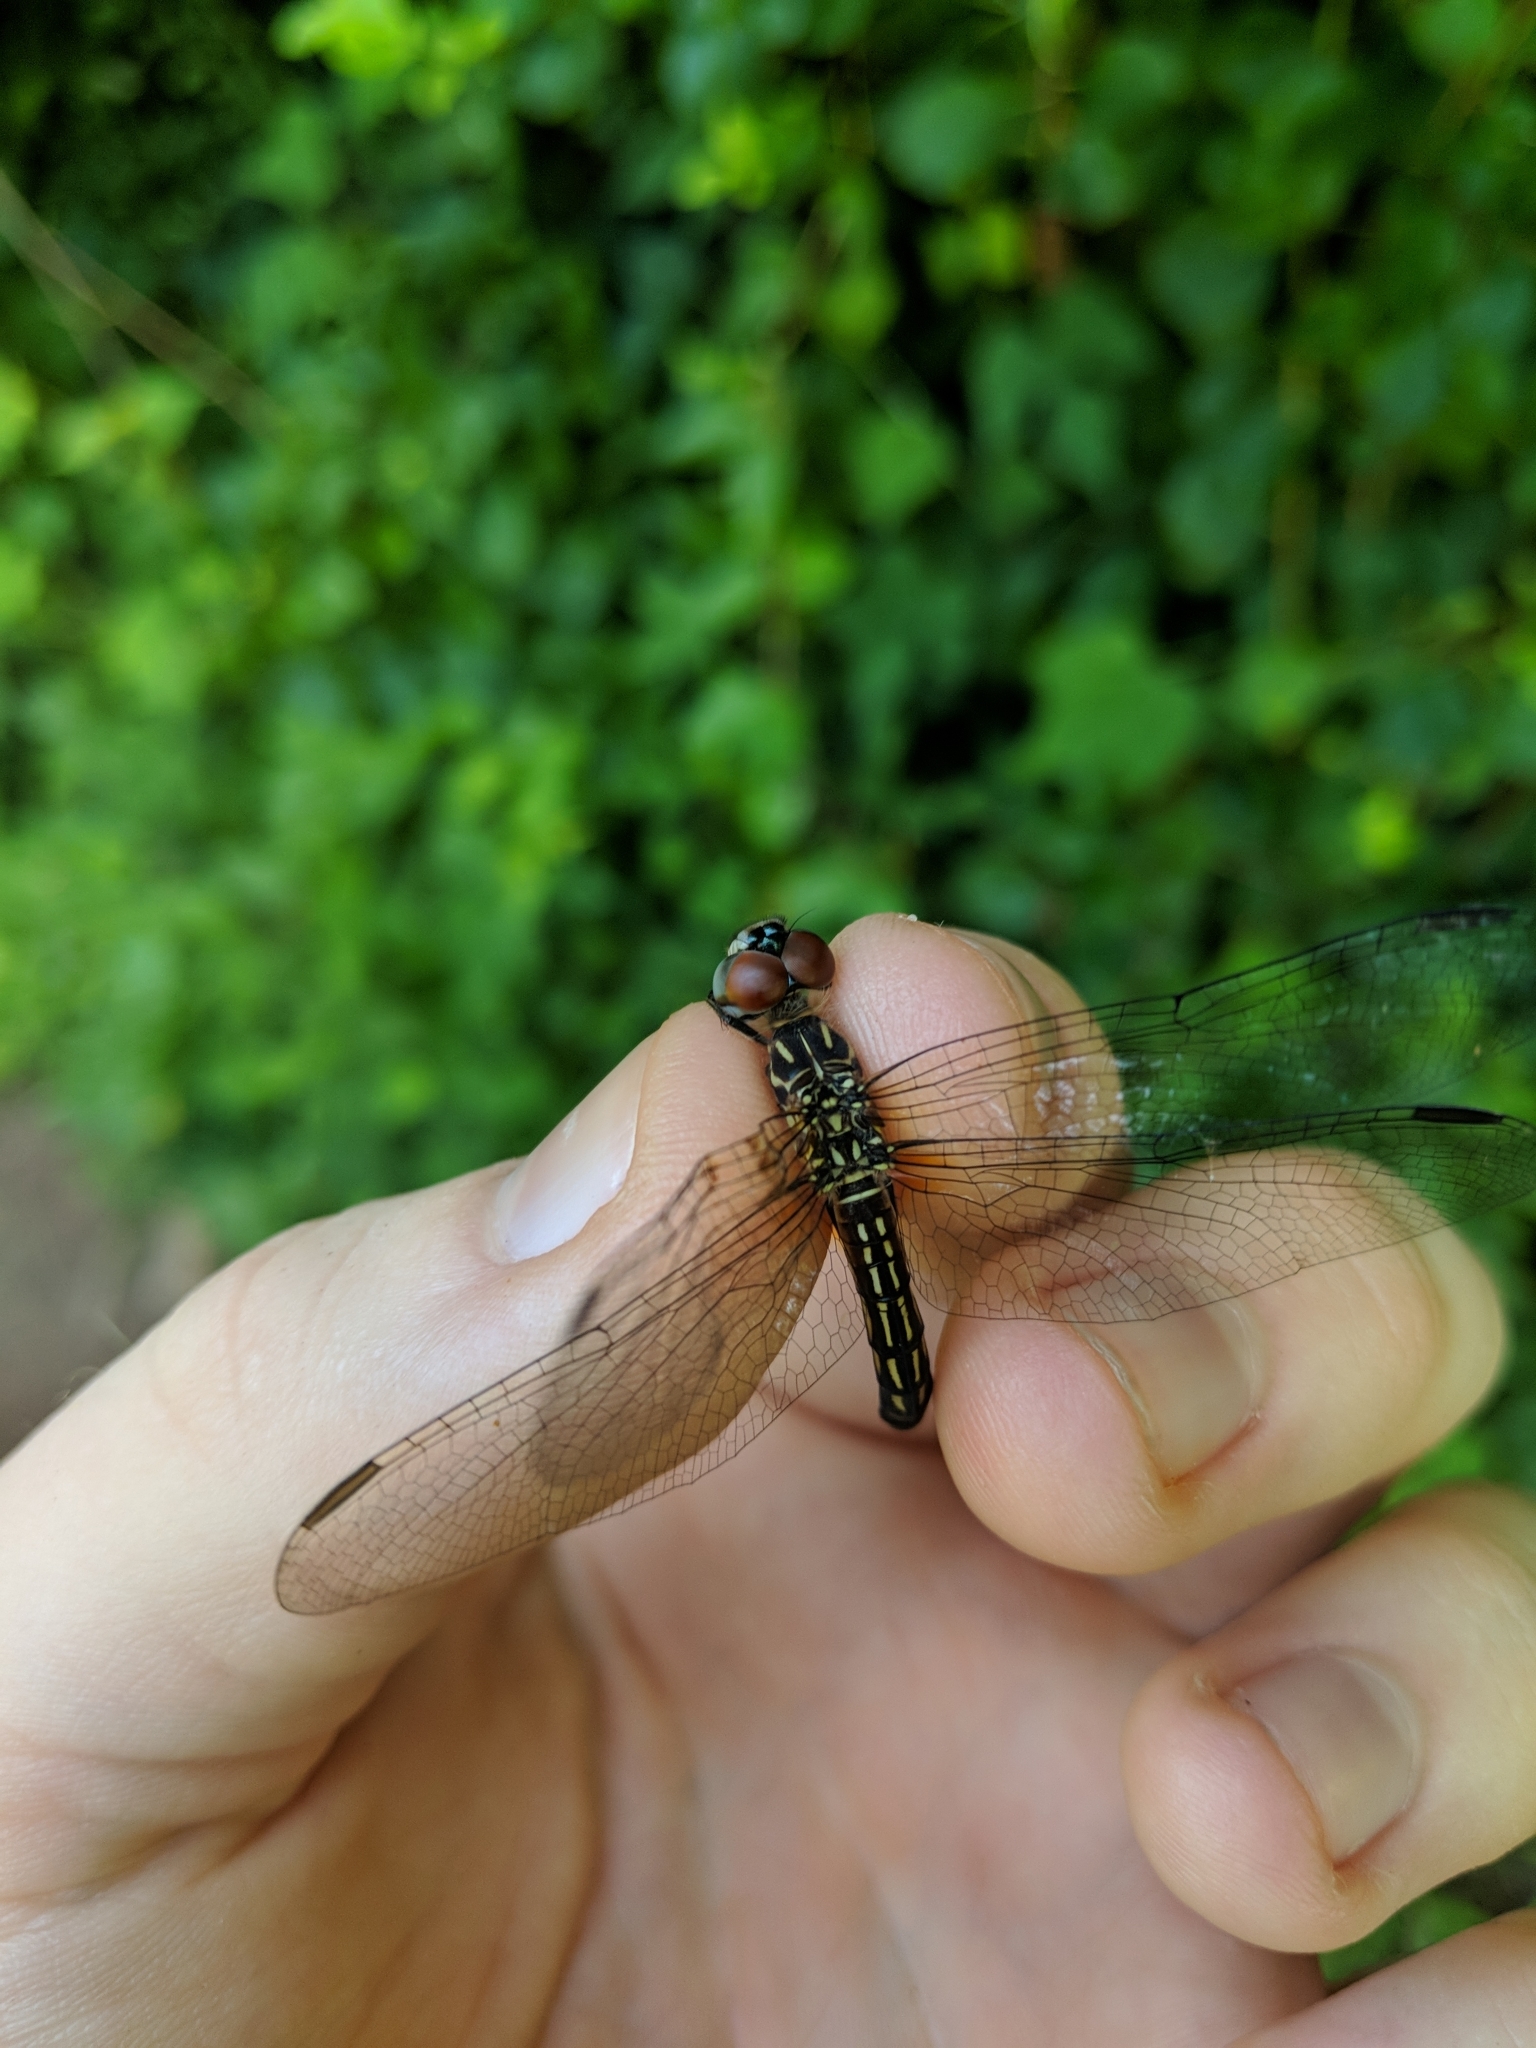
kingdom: Animalia
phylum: Arthropoda
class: Insecta
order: Odonata
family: Libellulidae
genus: Pachydiplax
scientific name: Pachydiplax longipennis
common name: Blue dasher
